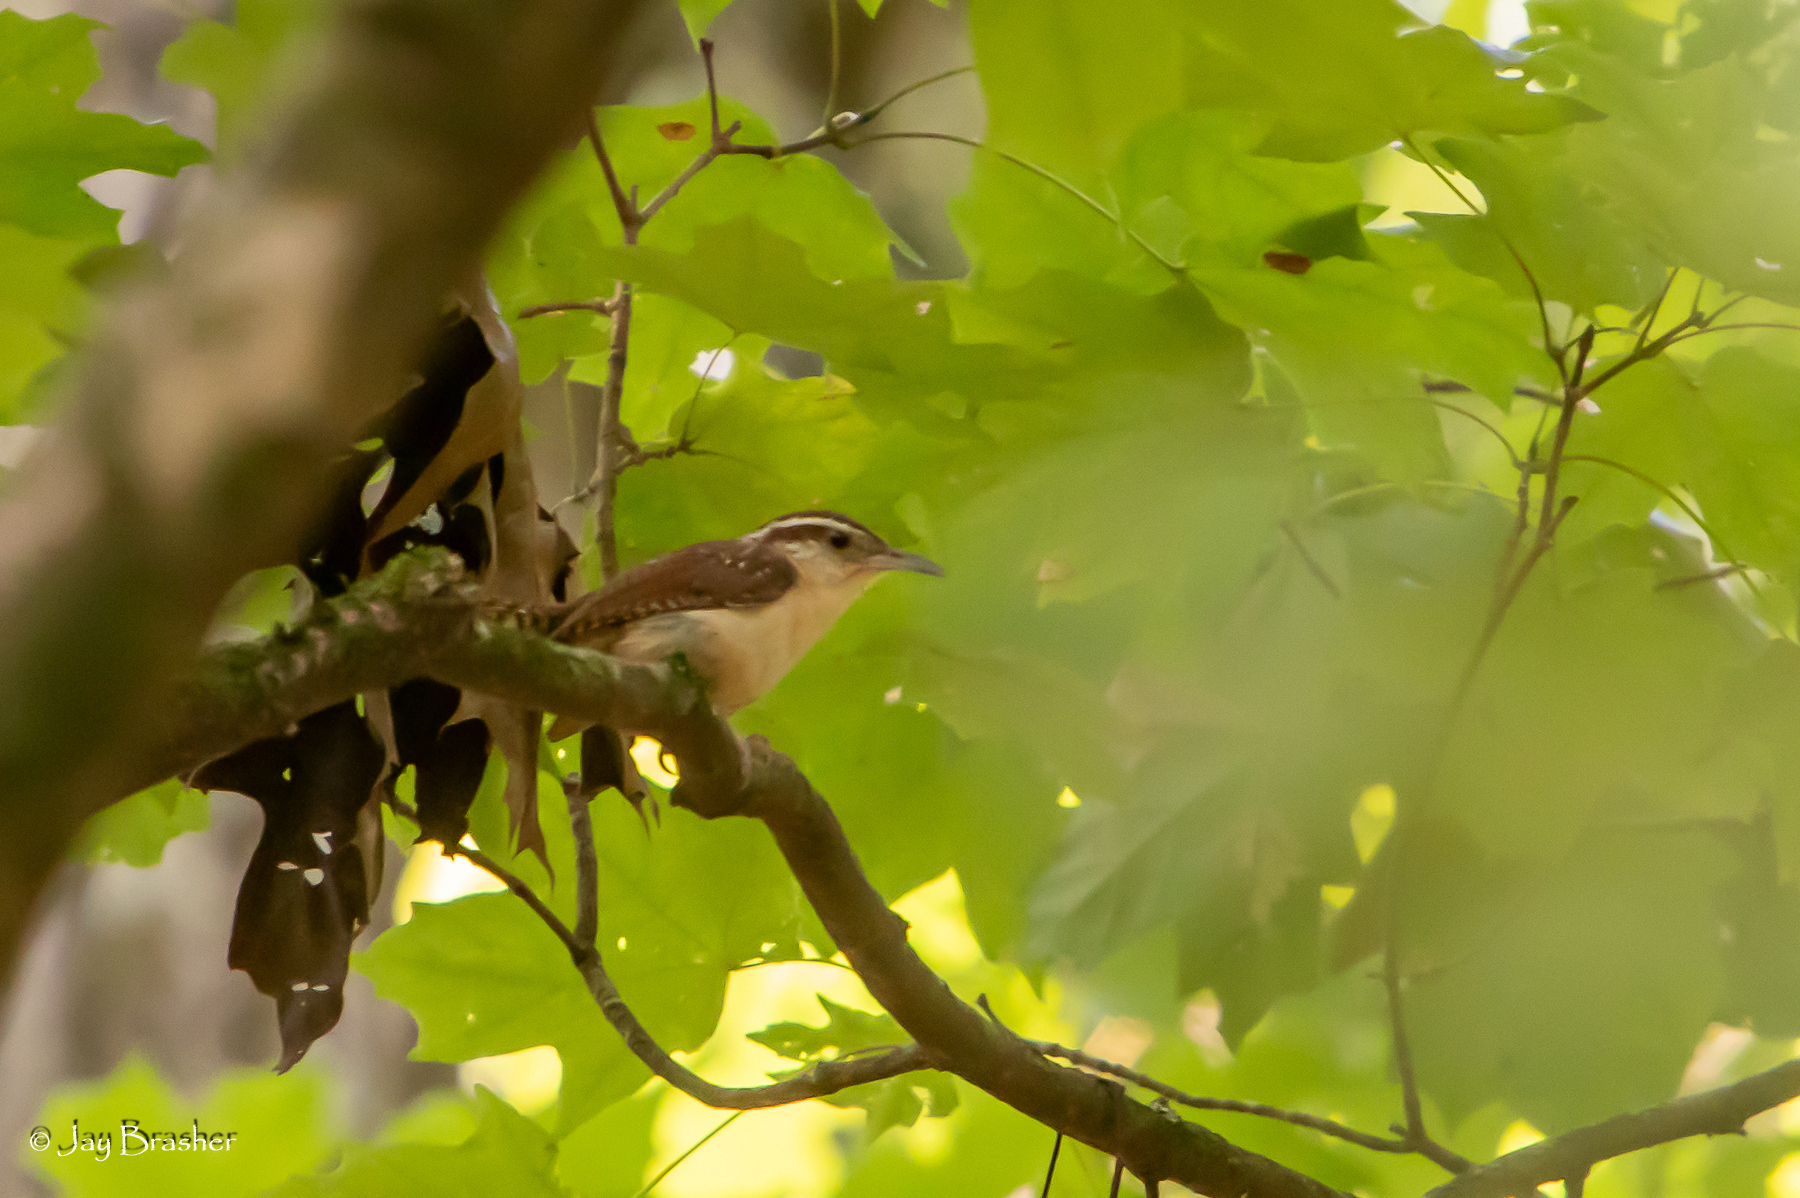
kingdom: Animalia
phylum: Chordata
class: Aves
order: Passeriformes
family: Troglodytidae
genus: Thryothorus
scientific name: Thryothorus ludovicianus
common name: Carolina wren
